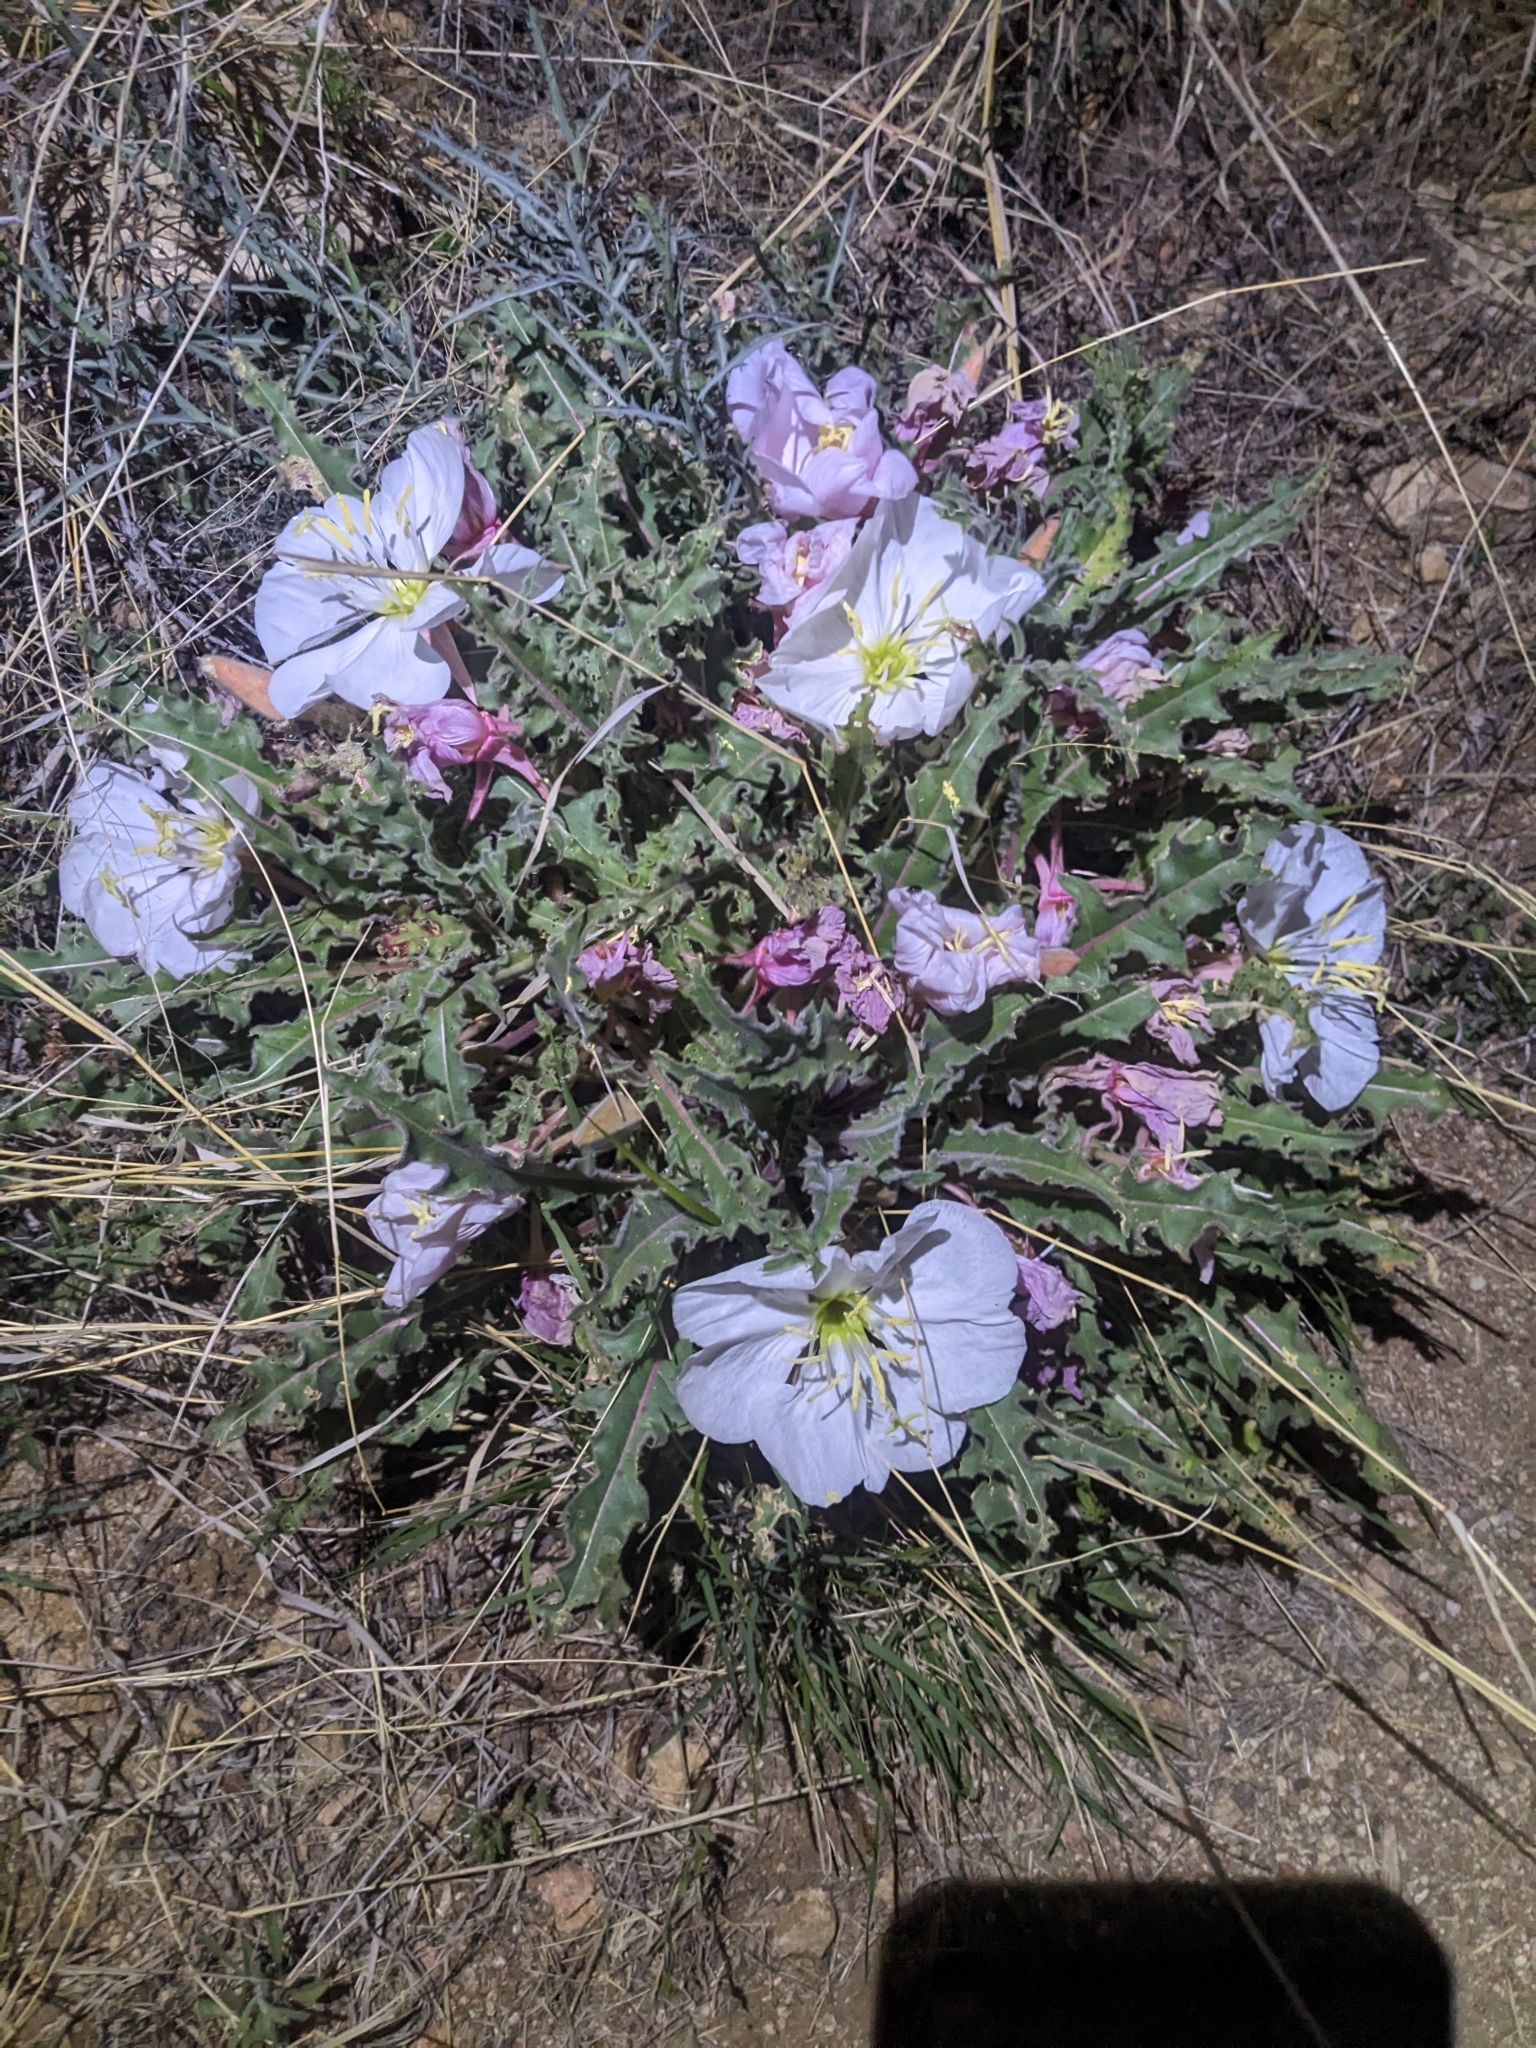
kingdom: Plantae
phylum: Tracheophyta
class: Magnoliopsida
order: Myrtales
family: Onagraceae
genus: Oenothera
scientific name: Oenothera cespitosa
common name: Tufted evening-primrose
